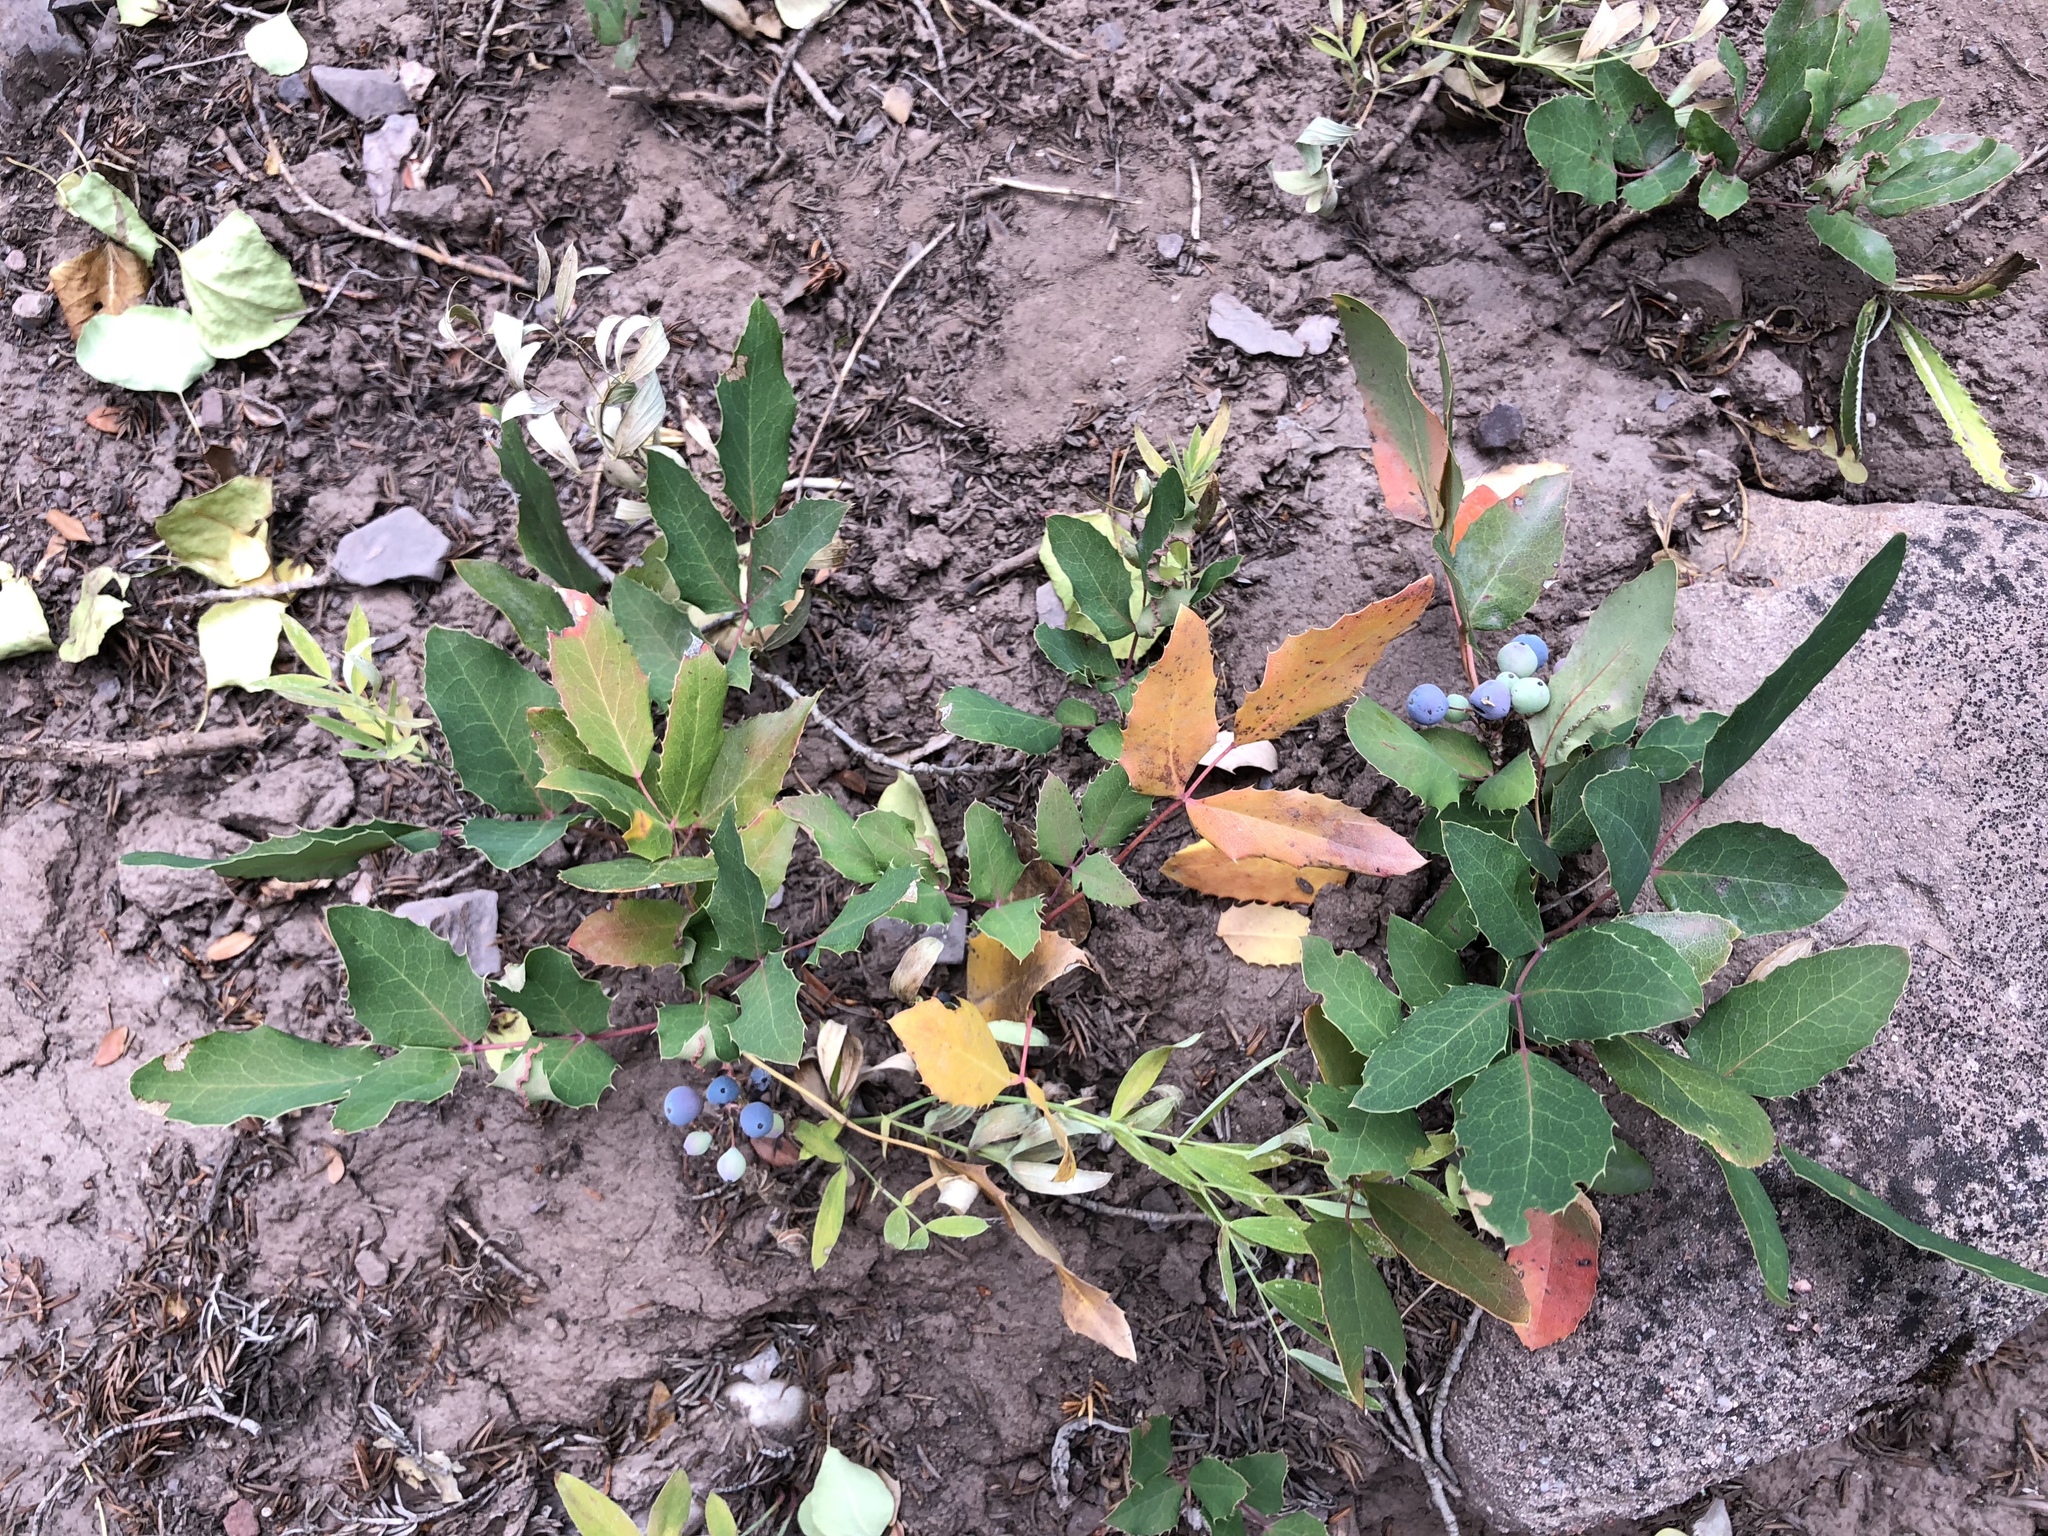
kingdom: Plantae
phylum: Tracheophyta
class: Magnoliopsida
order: Ranunculales
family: Berberidaceae
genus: Mahonia
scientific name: Mahonia repens
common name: Creeping oregon-grape
